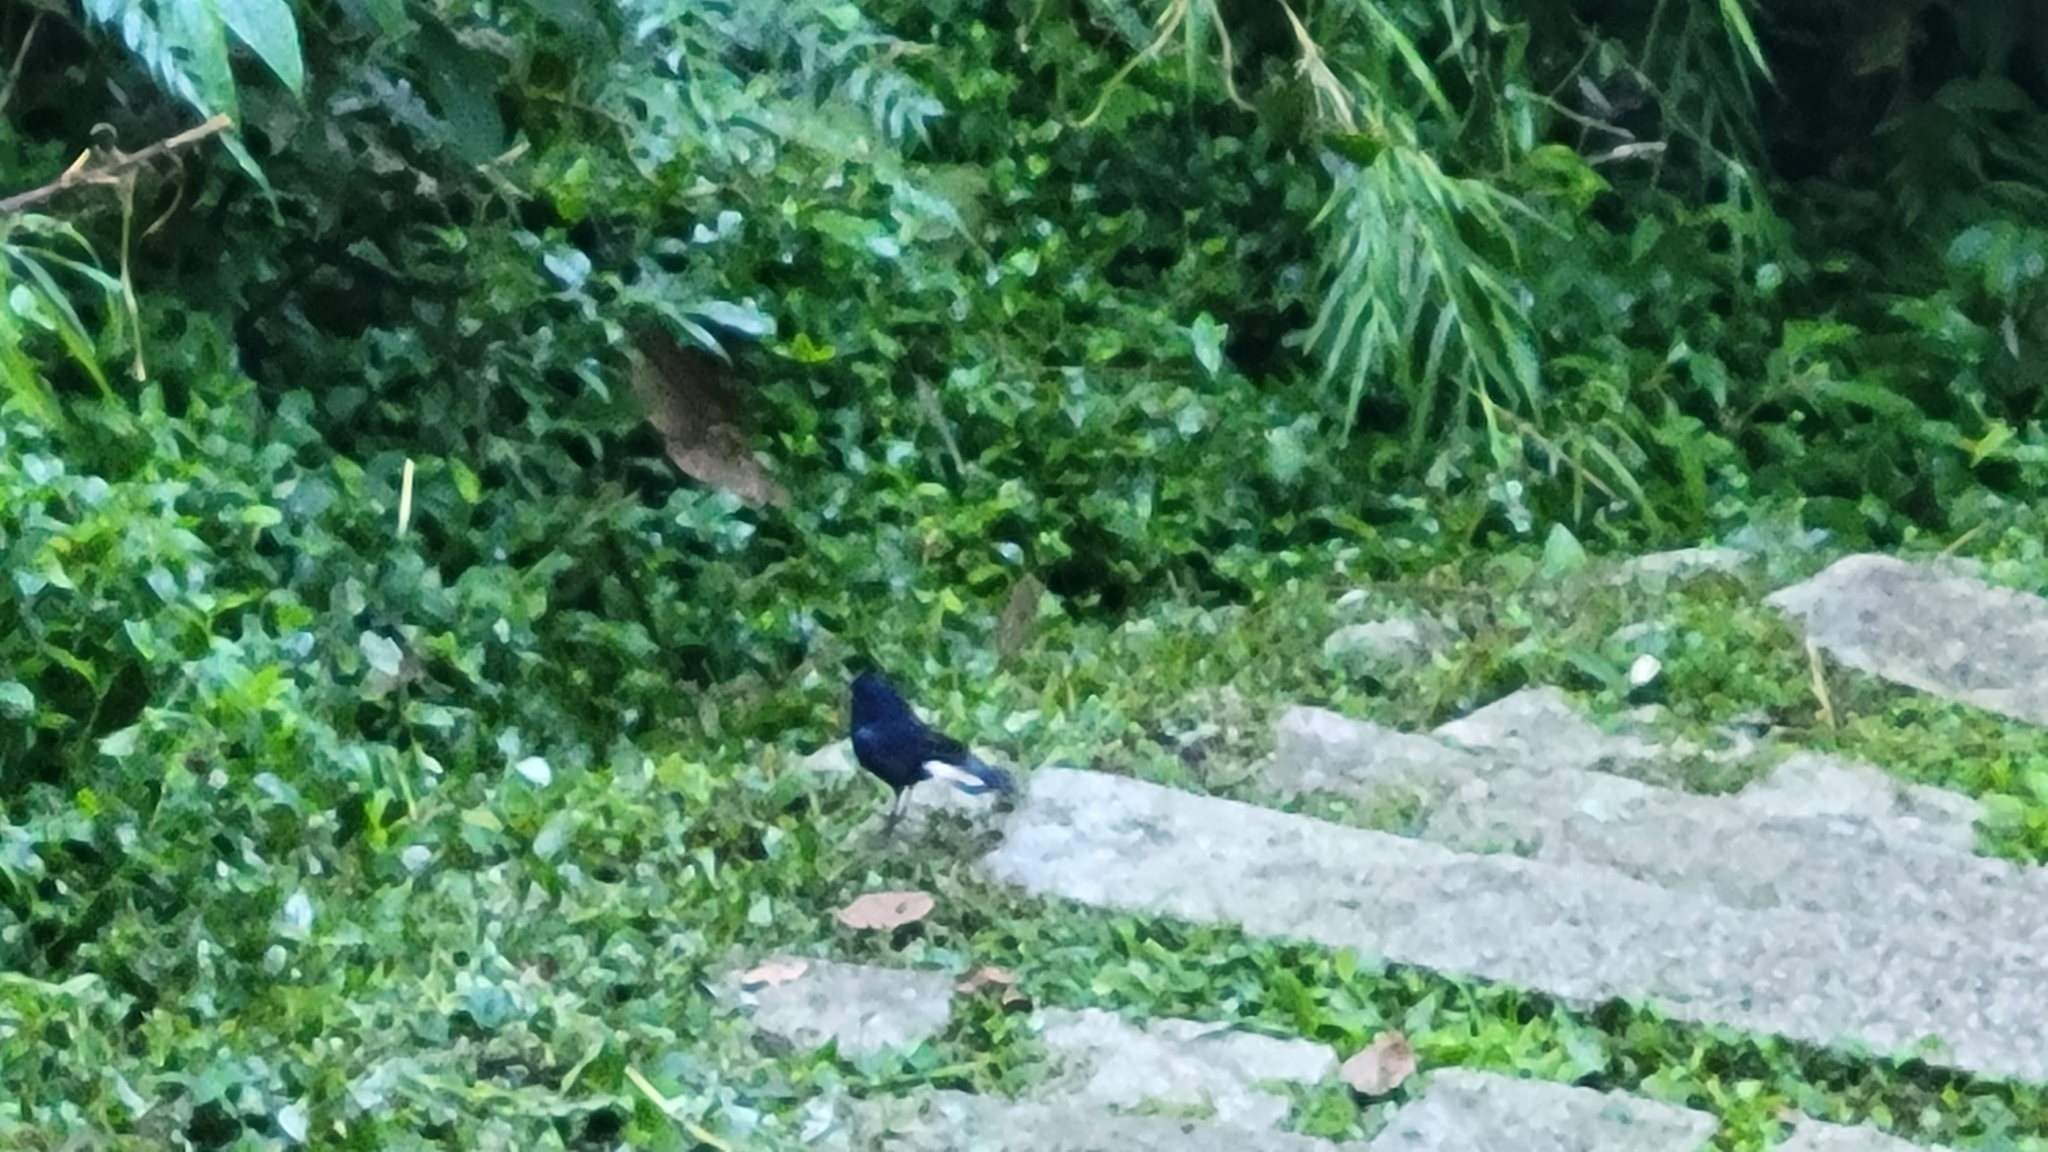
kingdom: Animalia
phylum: Chordata
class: Aves
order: Passeriformes
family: Muscicapidae
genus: Myiomela
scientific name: Myiomela leucura
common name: White-tailed robin
